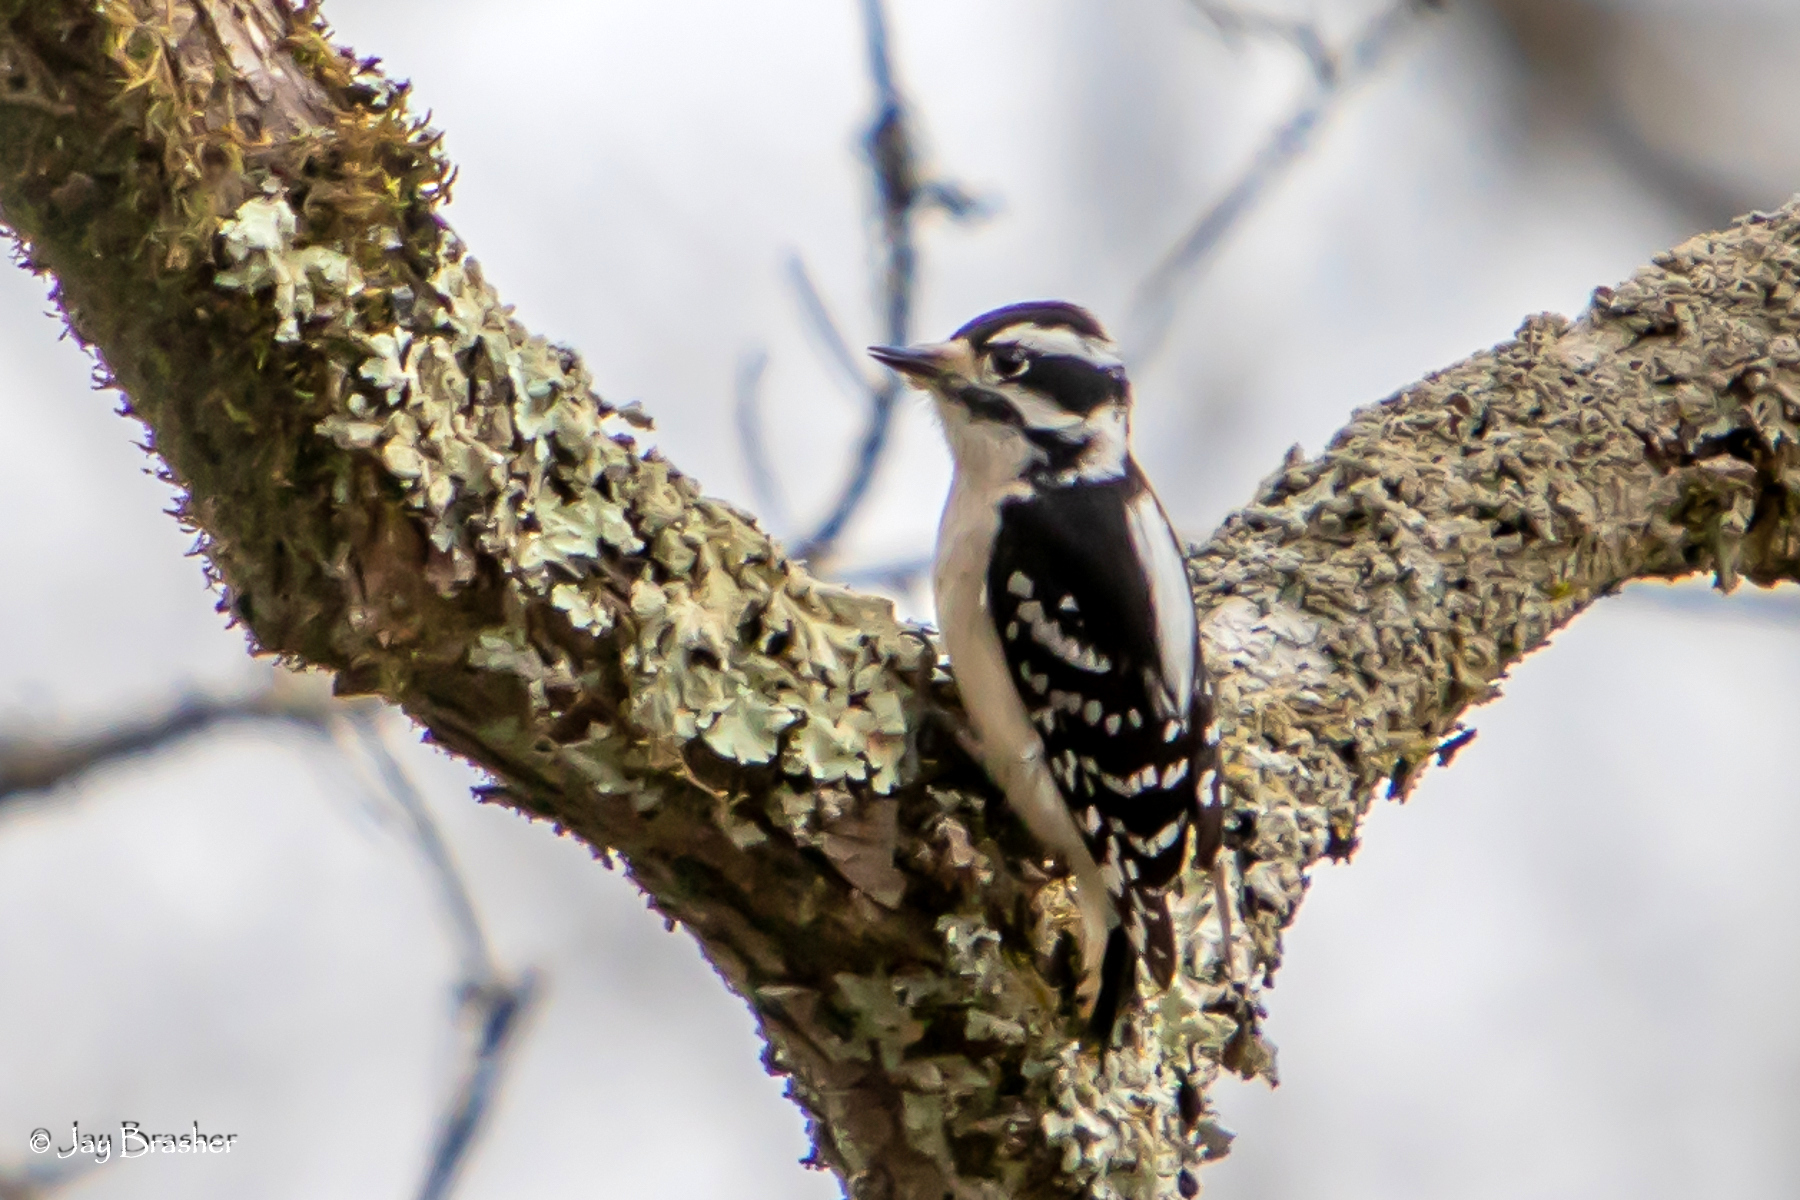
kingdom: Animalia
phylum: Chordata
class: Aves
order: Piciformes
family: Picidae
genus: Dryobates
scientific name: Dryobates pubescens
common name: Downy woodpecker
